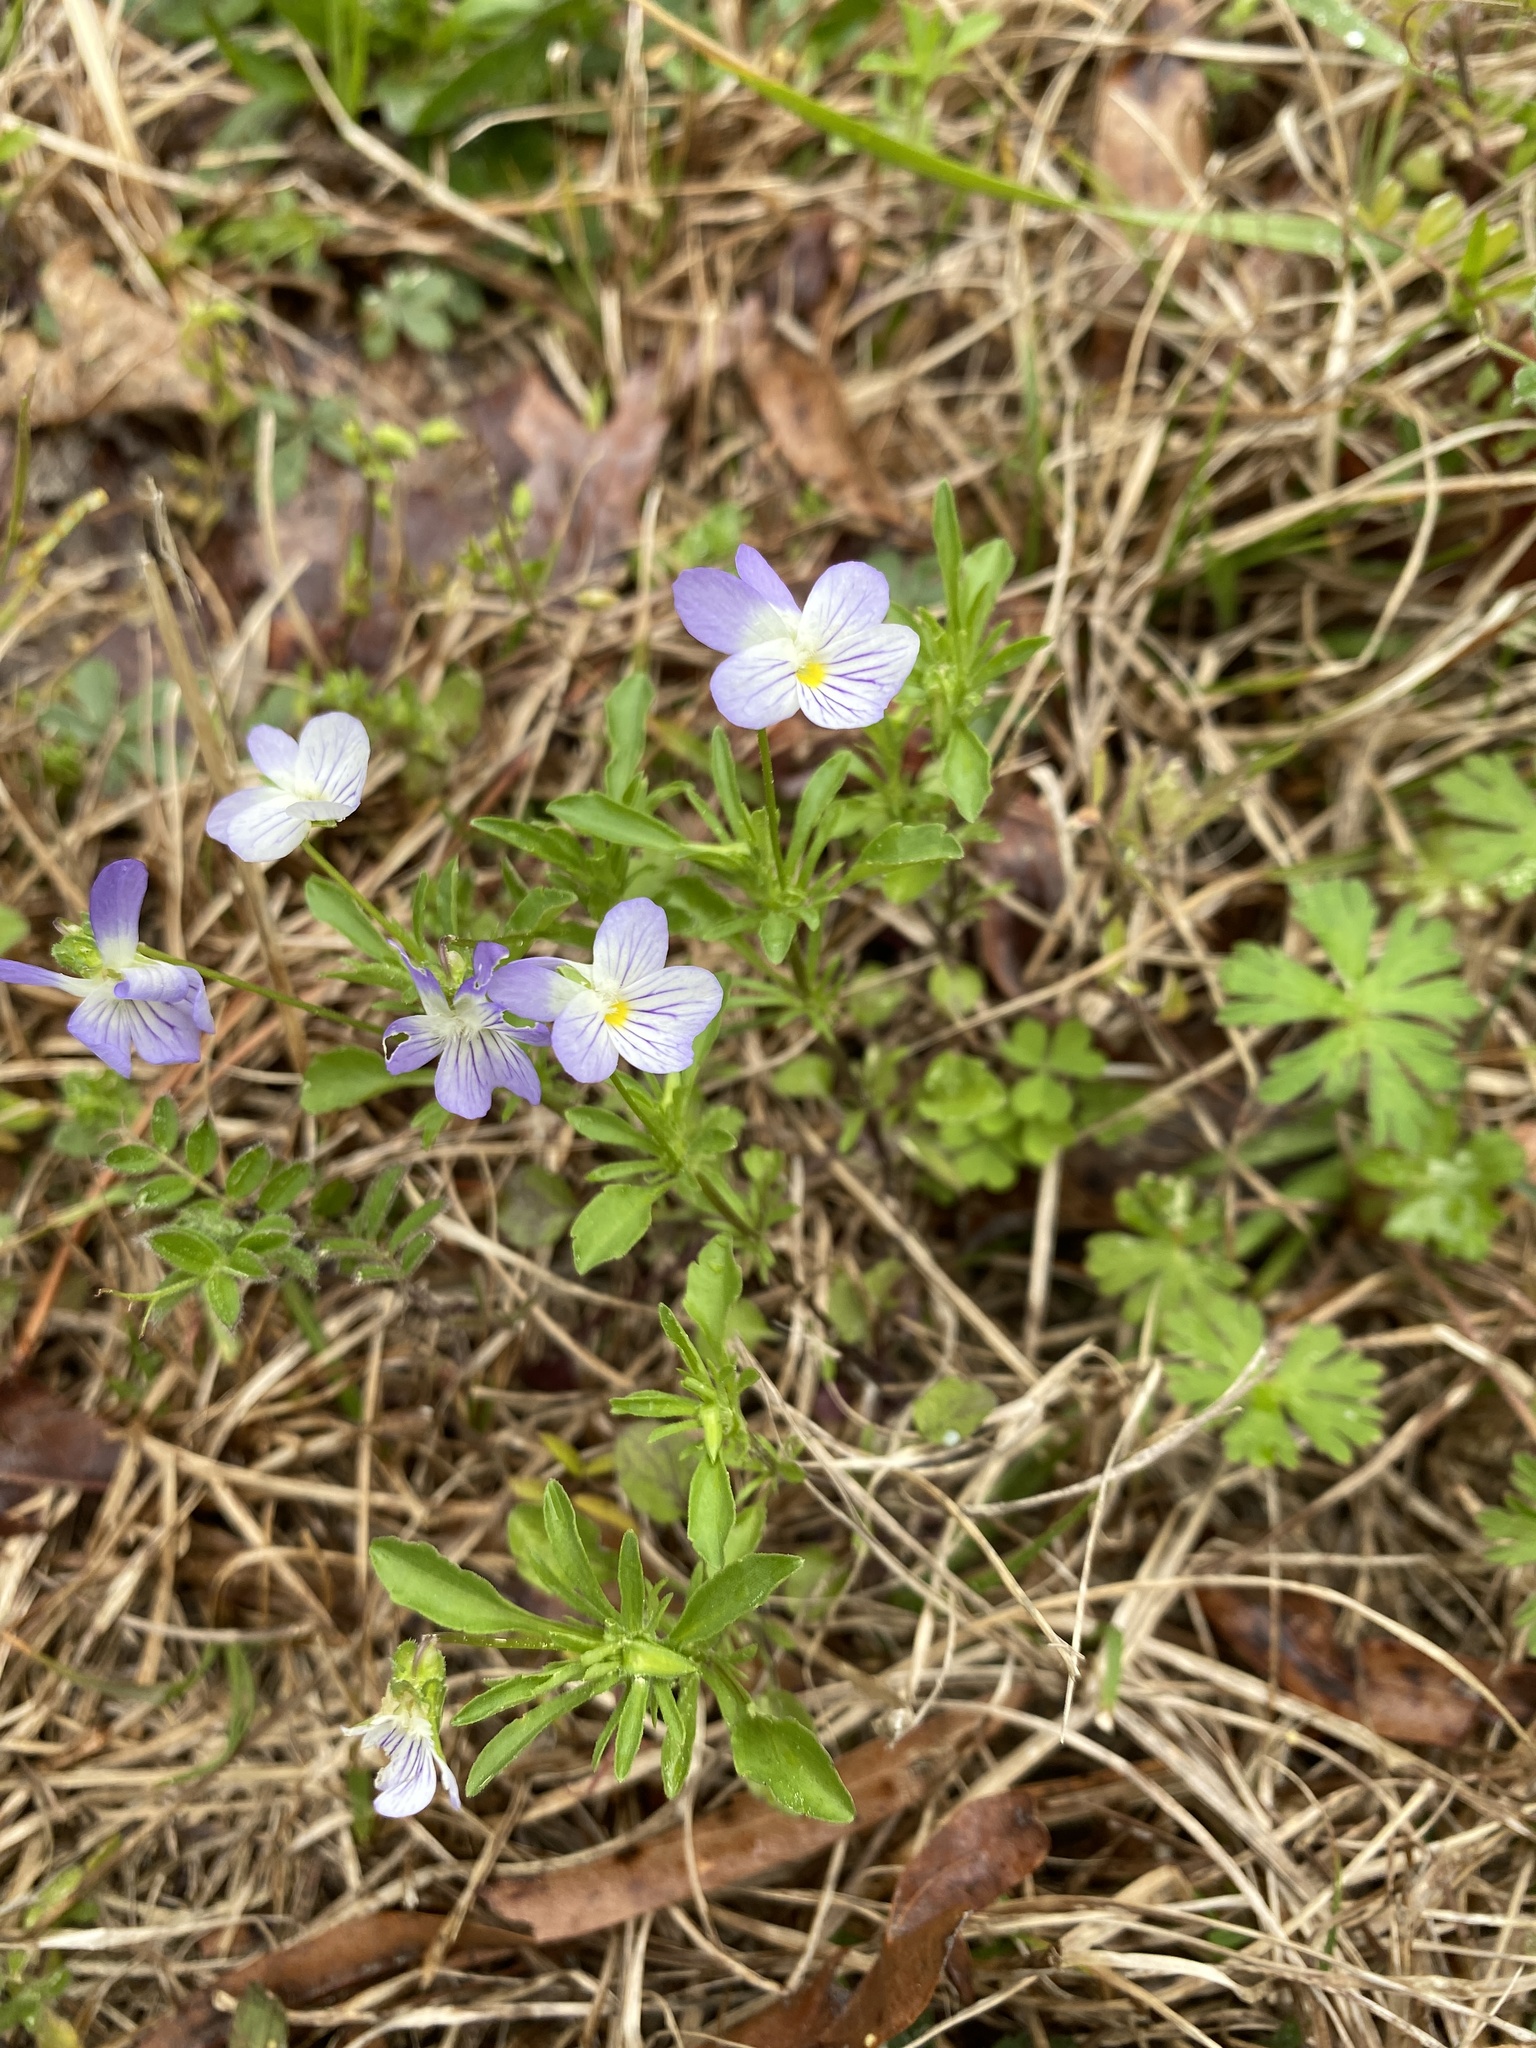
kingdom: Plantae
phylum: Tracheophyta
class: Magnoliopsida
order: Malpighiales
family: Violaceae
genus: Viola
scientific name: Viola rafinesquei
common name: American field pansy
